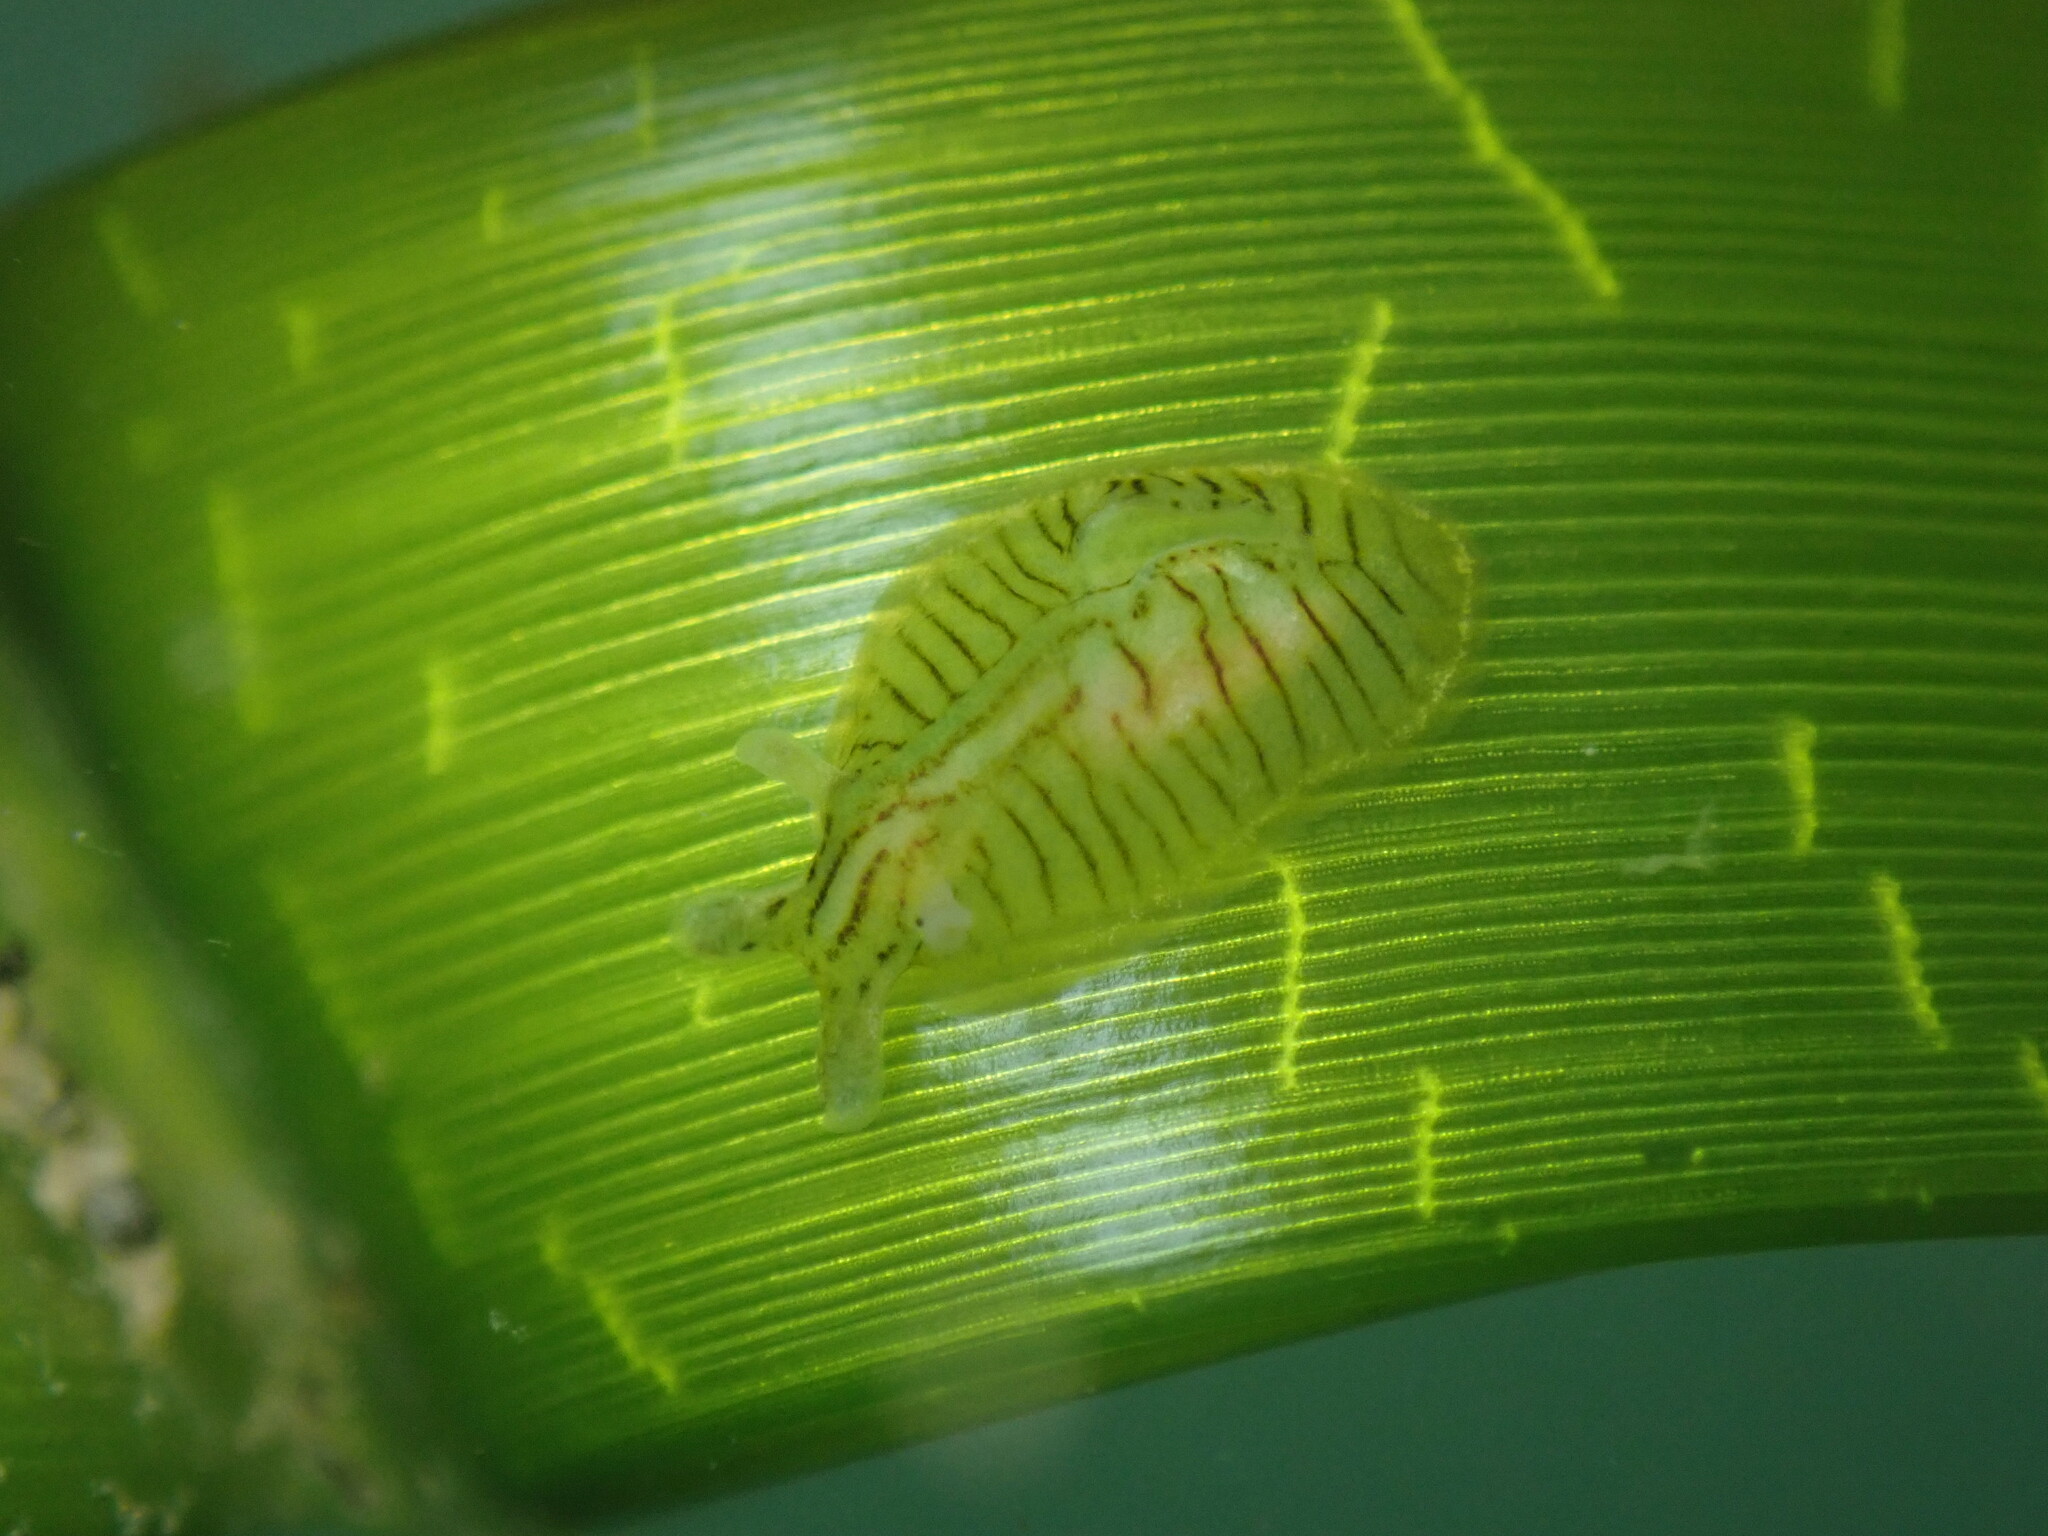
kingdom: Animalia
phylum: Mollusca
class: Gastropoda
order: Aplysiida
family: Aplysiidae
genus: Phyllaplysia
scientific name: Phyllaplysia taylori
